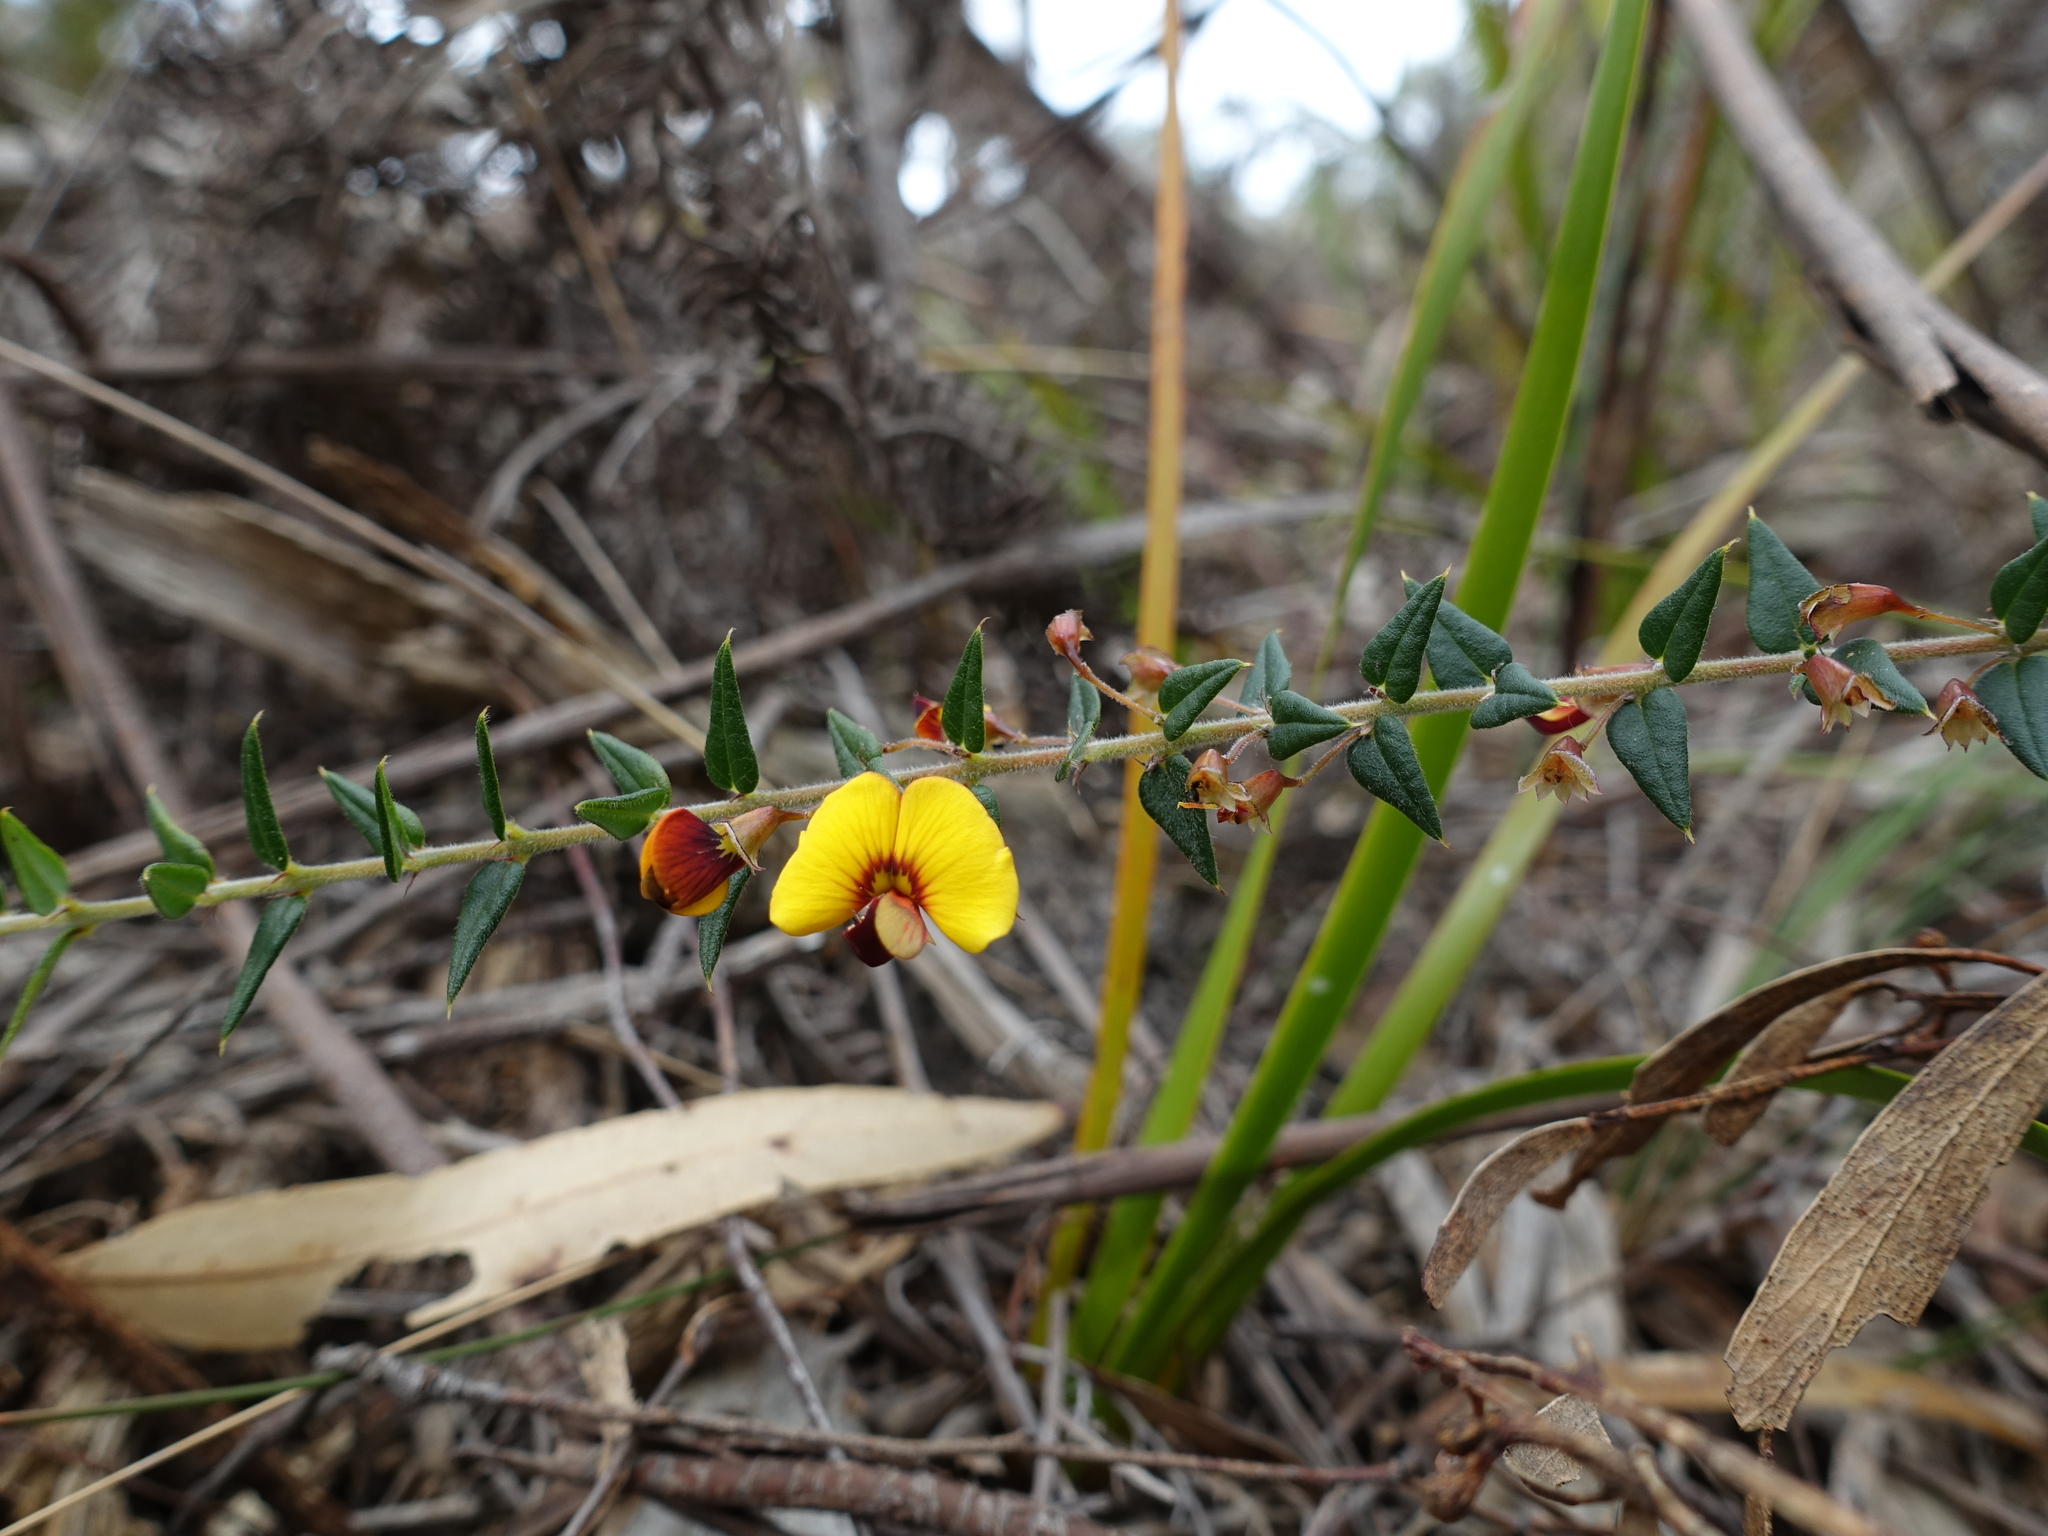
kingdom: Plantae
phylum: Tracheophyta
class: Magnoliopsida
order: Fabales
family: Fabaceae
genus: Bossiaea
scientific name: Bossiaea cinerea
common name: Showy bossiaea
